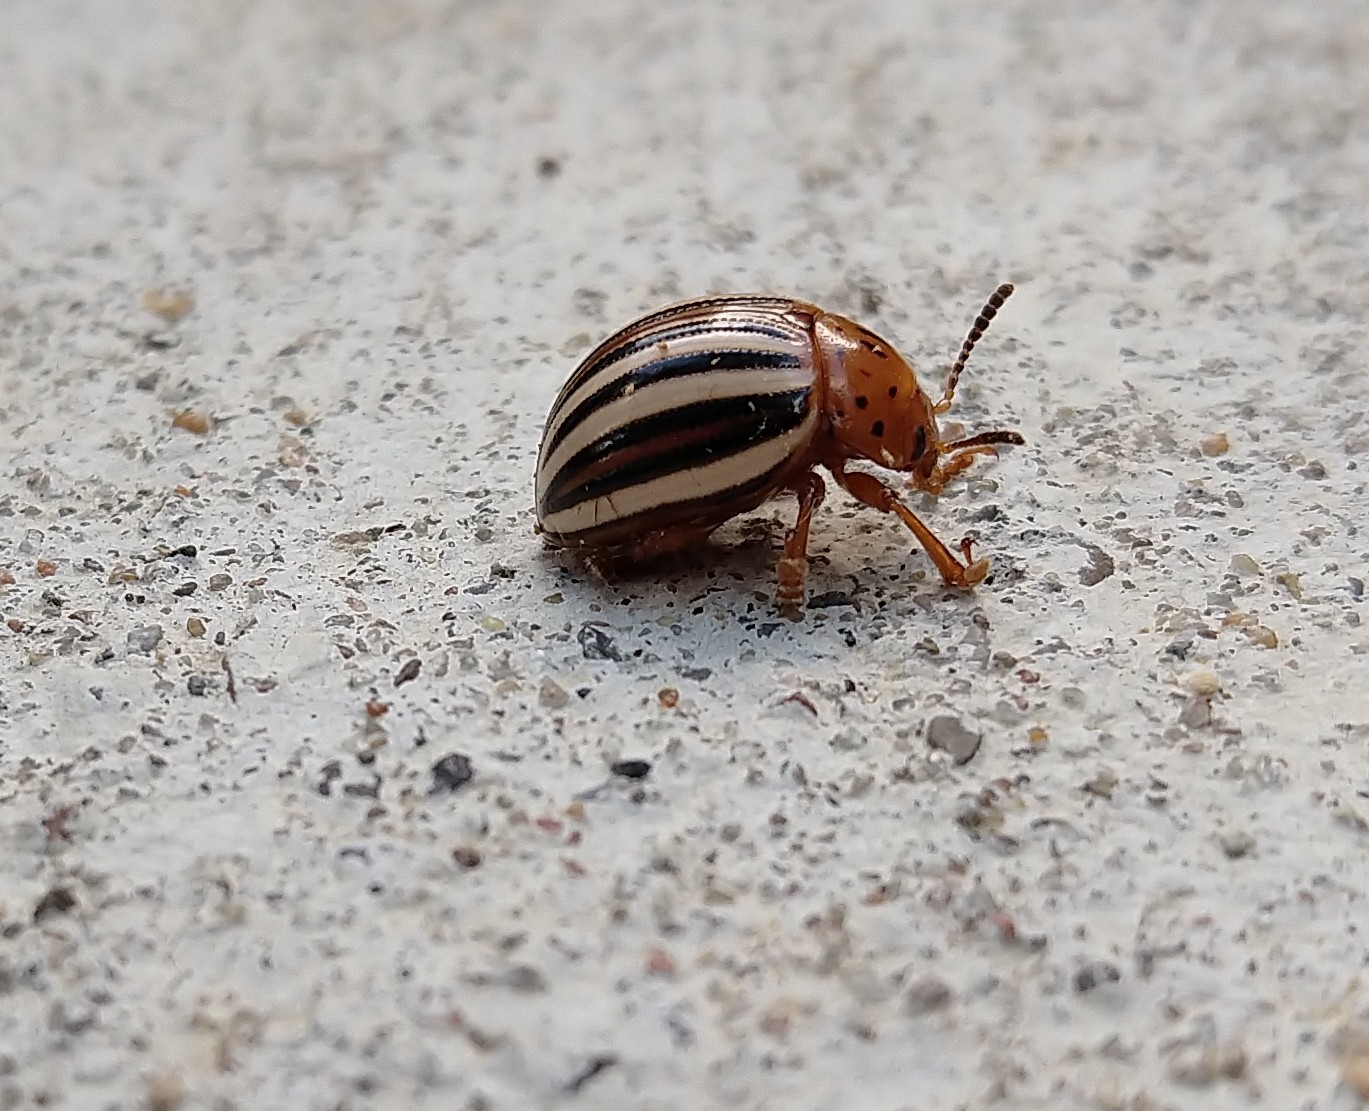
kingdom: Animalia
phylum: Arthropoda
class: Insecta
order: Coleoptera
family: Chrysomelidae
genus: Leptinotarsa
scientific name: Leptinotarsa juncta
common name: False potato beetle
